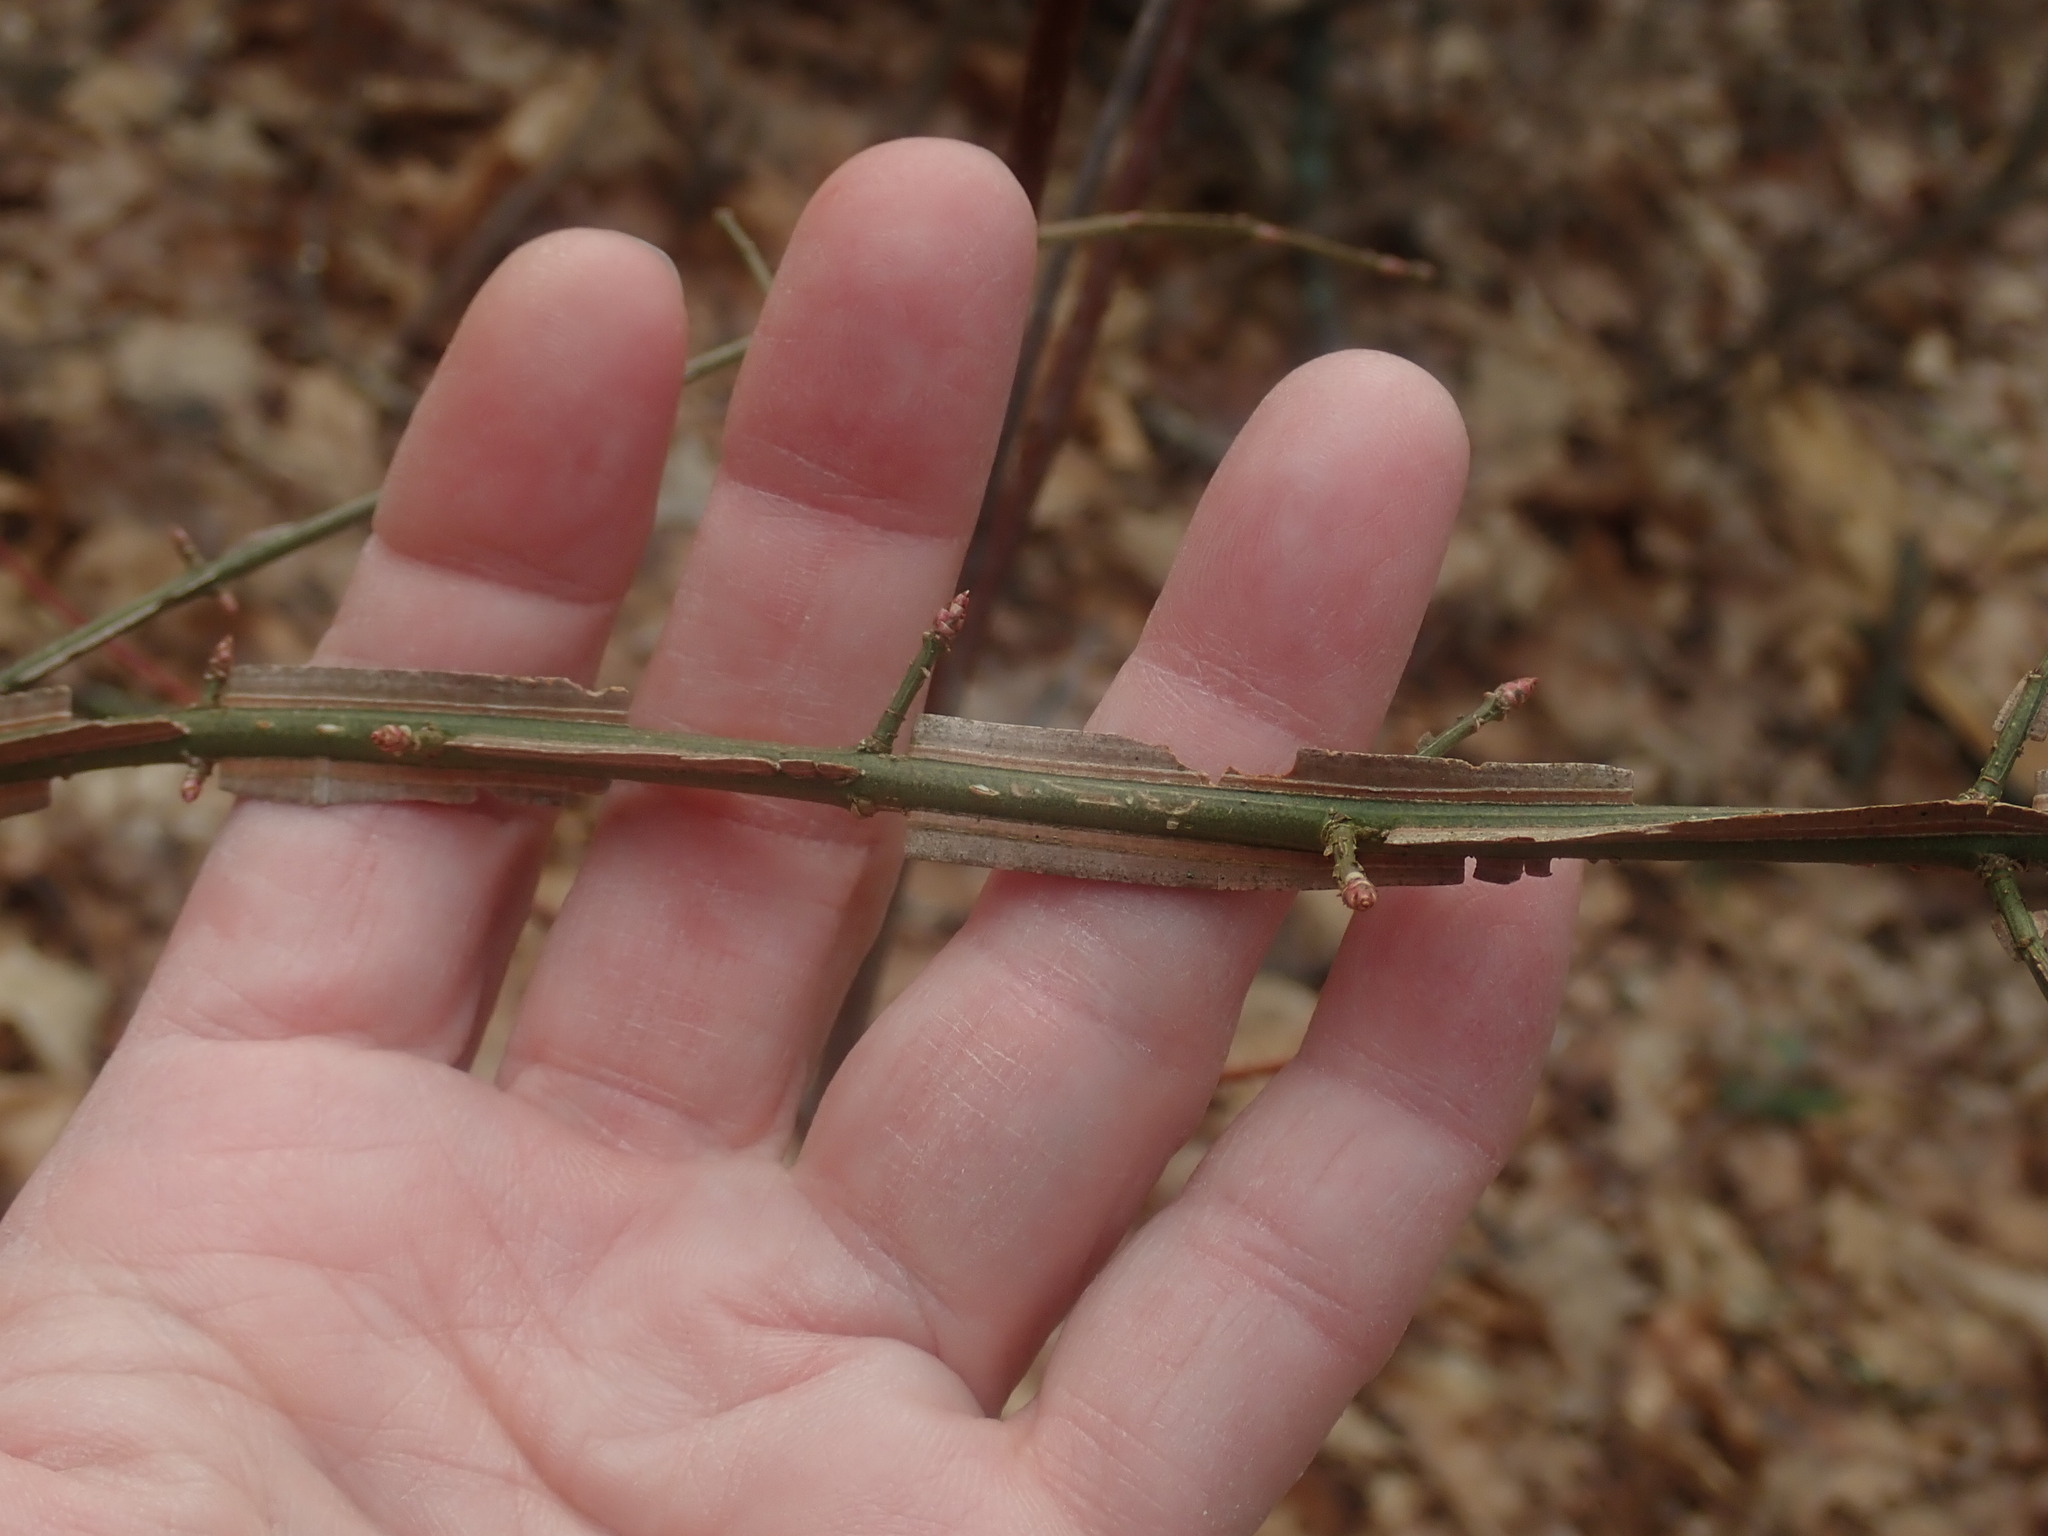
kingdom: Plantae
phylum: Tracheophyta
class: Magnoliopsida
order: Celastrales
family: Celastraceae
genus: Euonymus
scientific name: Euonymus alatus
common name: Winged euonymus
